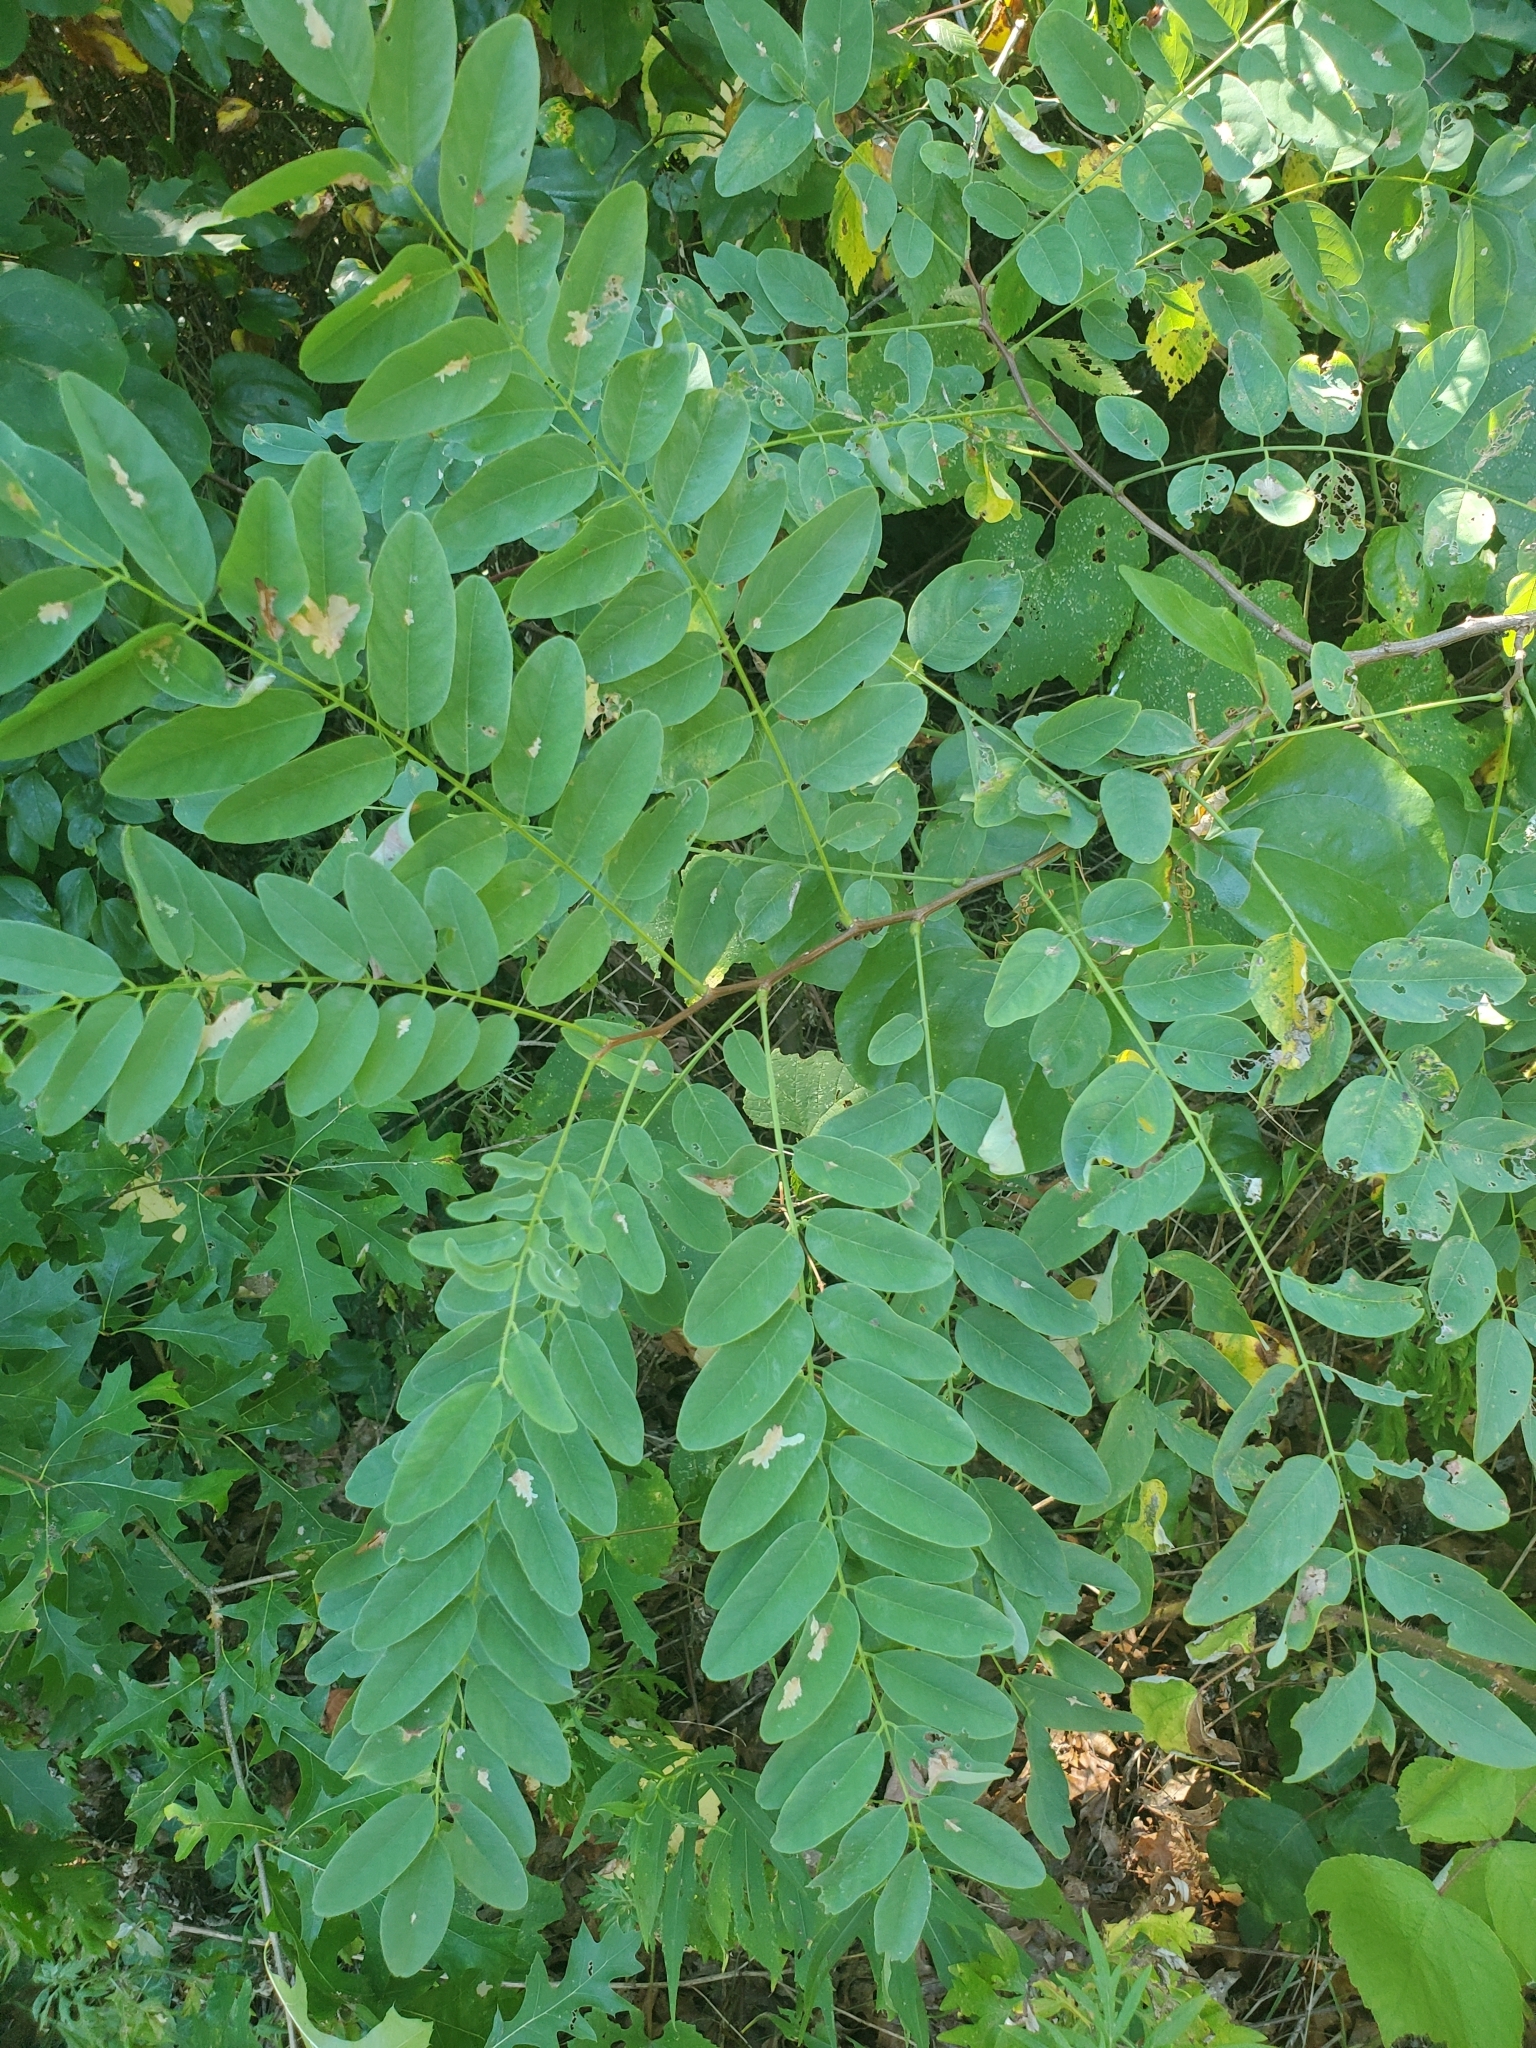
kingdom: Plantae
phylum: Tracheophyta
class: Magnoliopsida
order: Fabales
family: Fabaceae
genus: Robinia
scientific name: Robinia pseudoacacia
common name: Black locust
